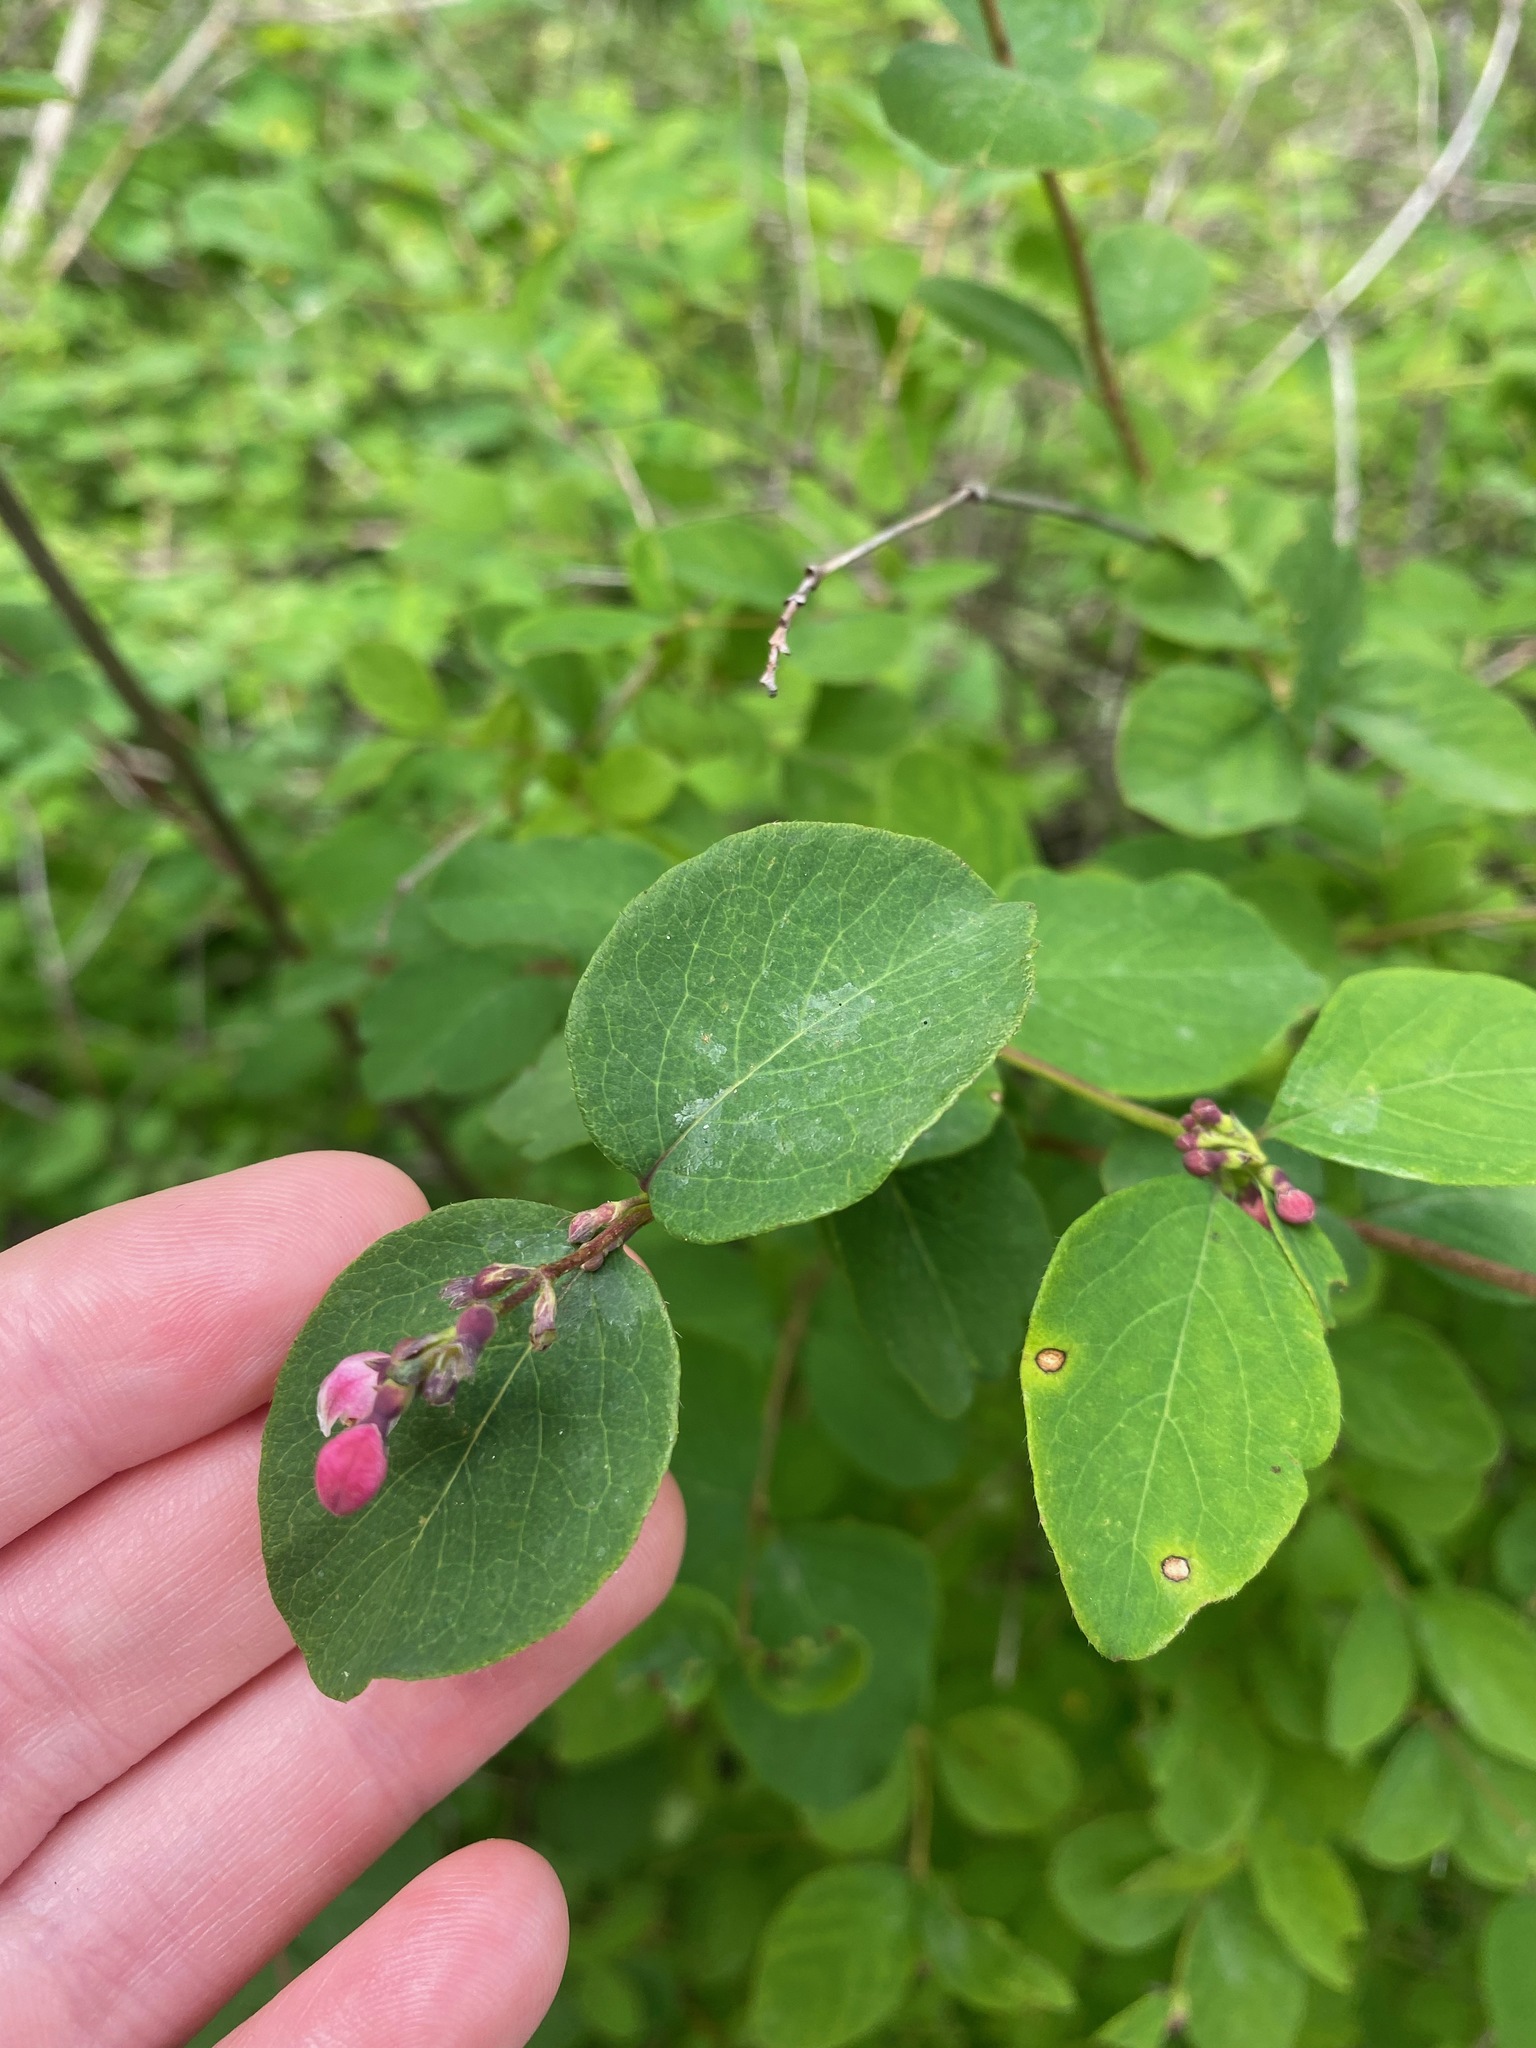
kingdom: Plantae
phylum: Tracheophyta
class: Magnoliopsida
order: Dipsacales
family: Caprifoliaceae
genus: Symphoricarpos
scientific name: Symphoricarpos albus
